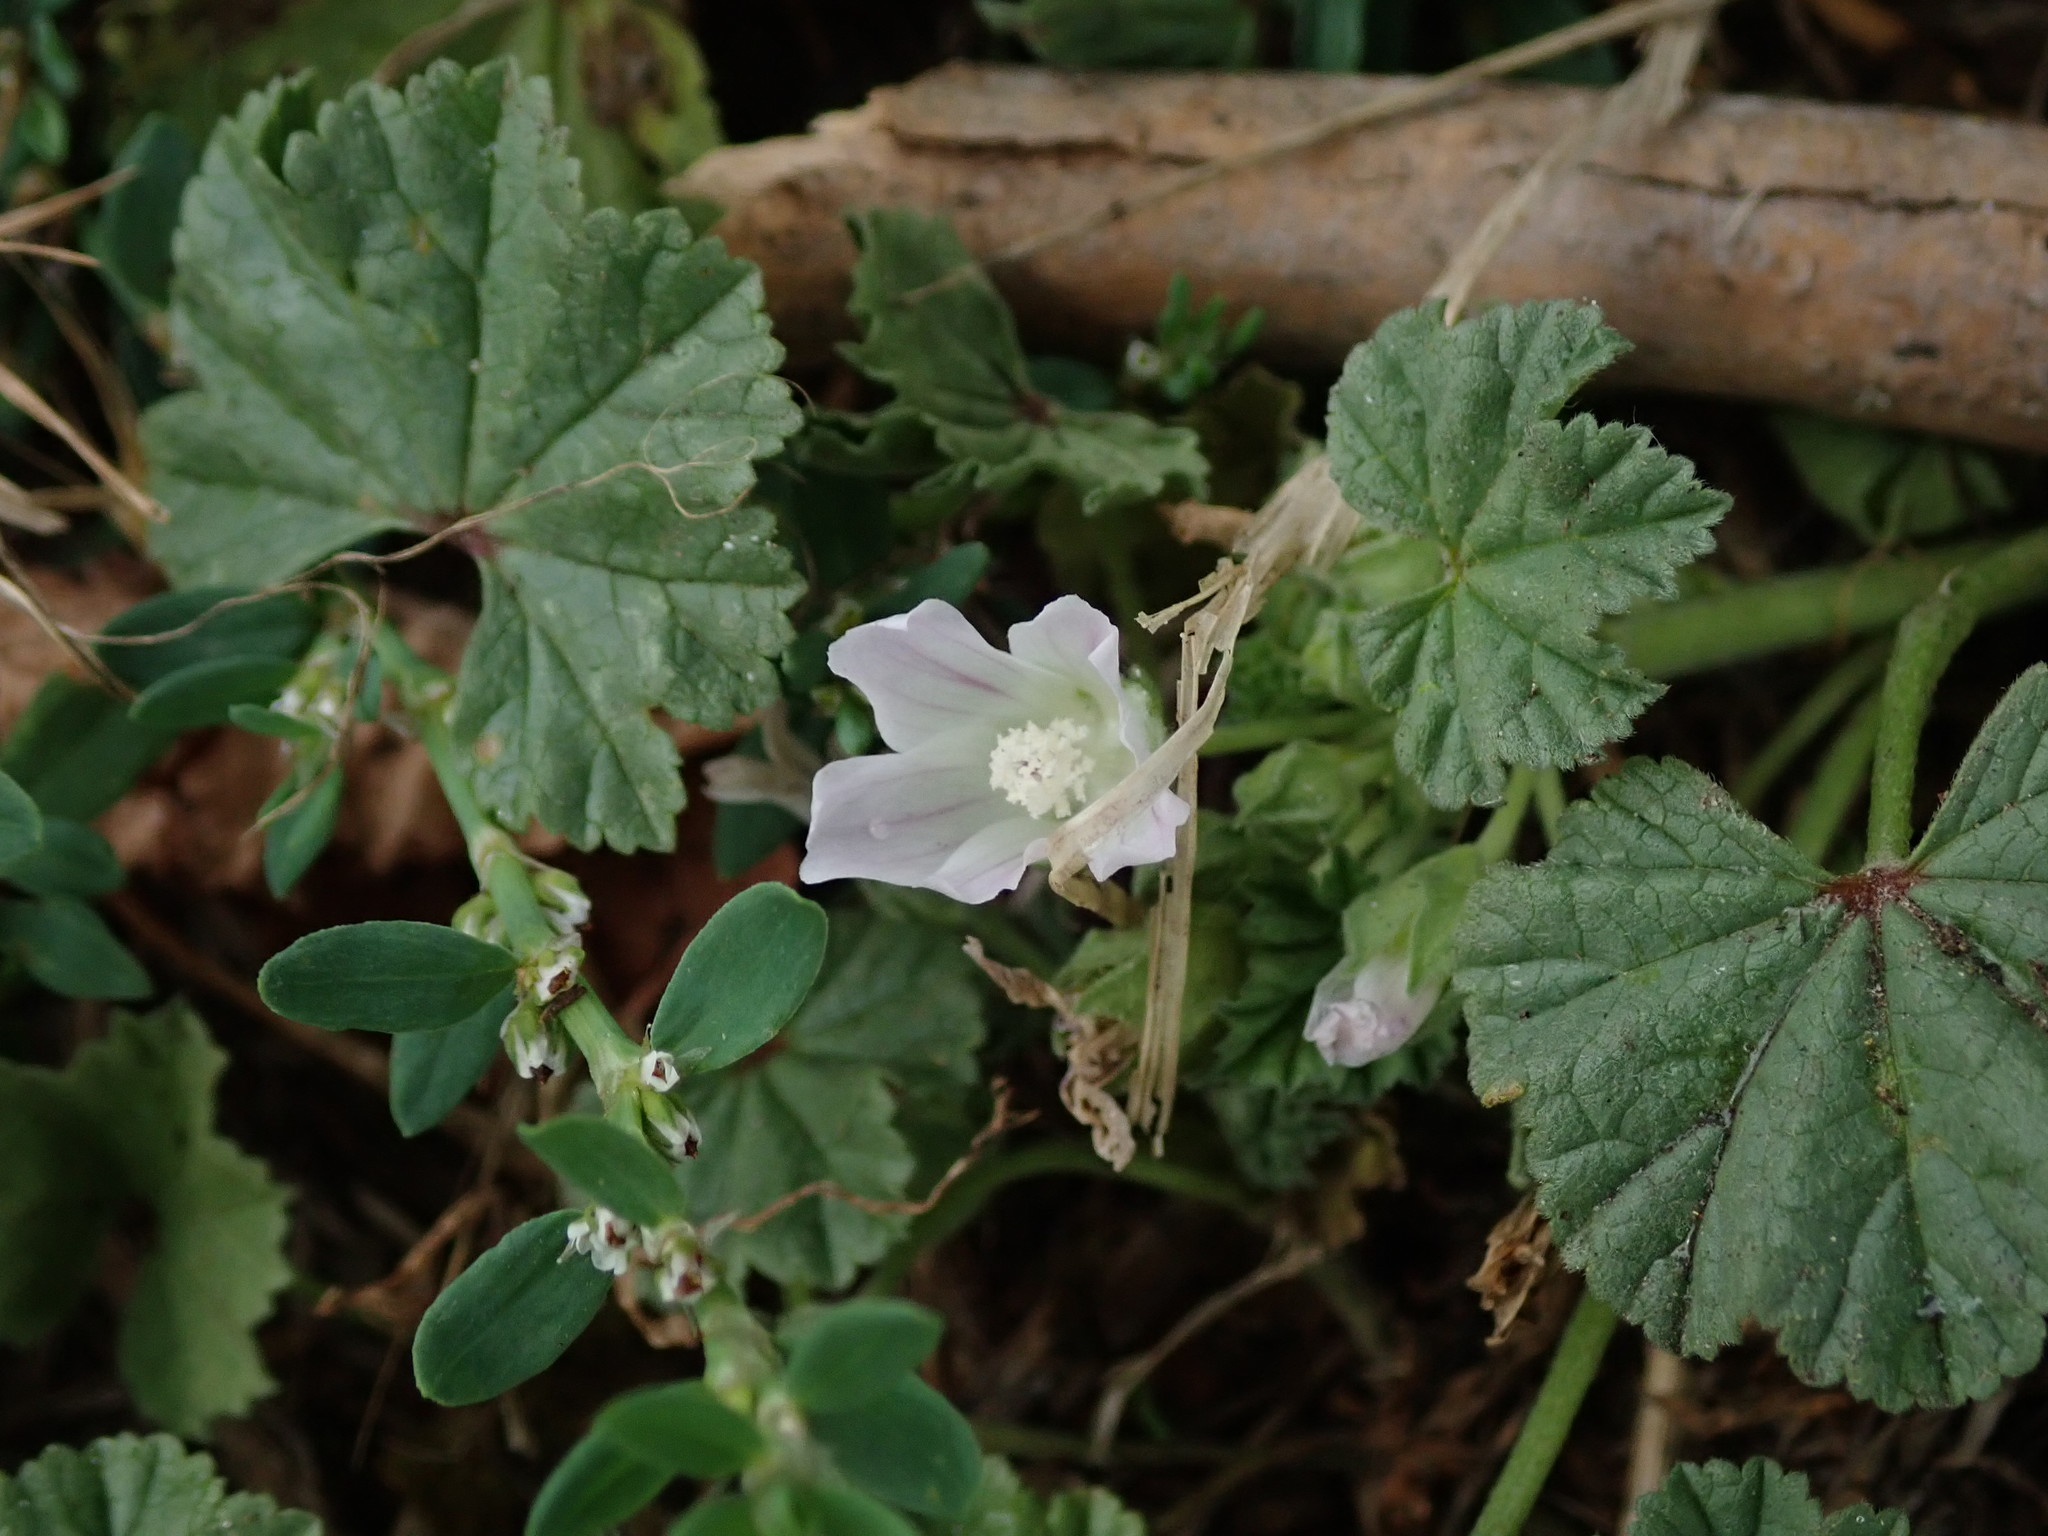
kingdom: Plantae
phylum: Tracheophyta
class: Magnoliopsida
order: Malvales
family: Malvaceae
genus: Malva
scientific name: Malva neglecta
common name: Common mallow
